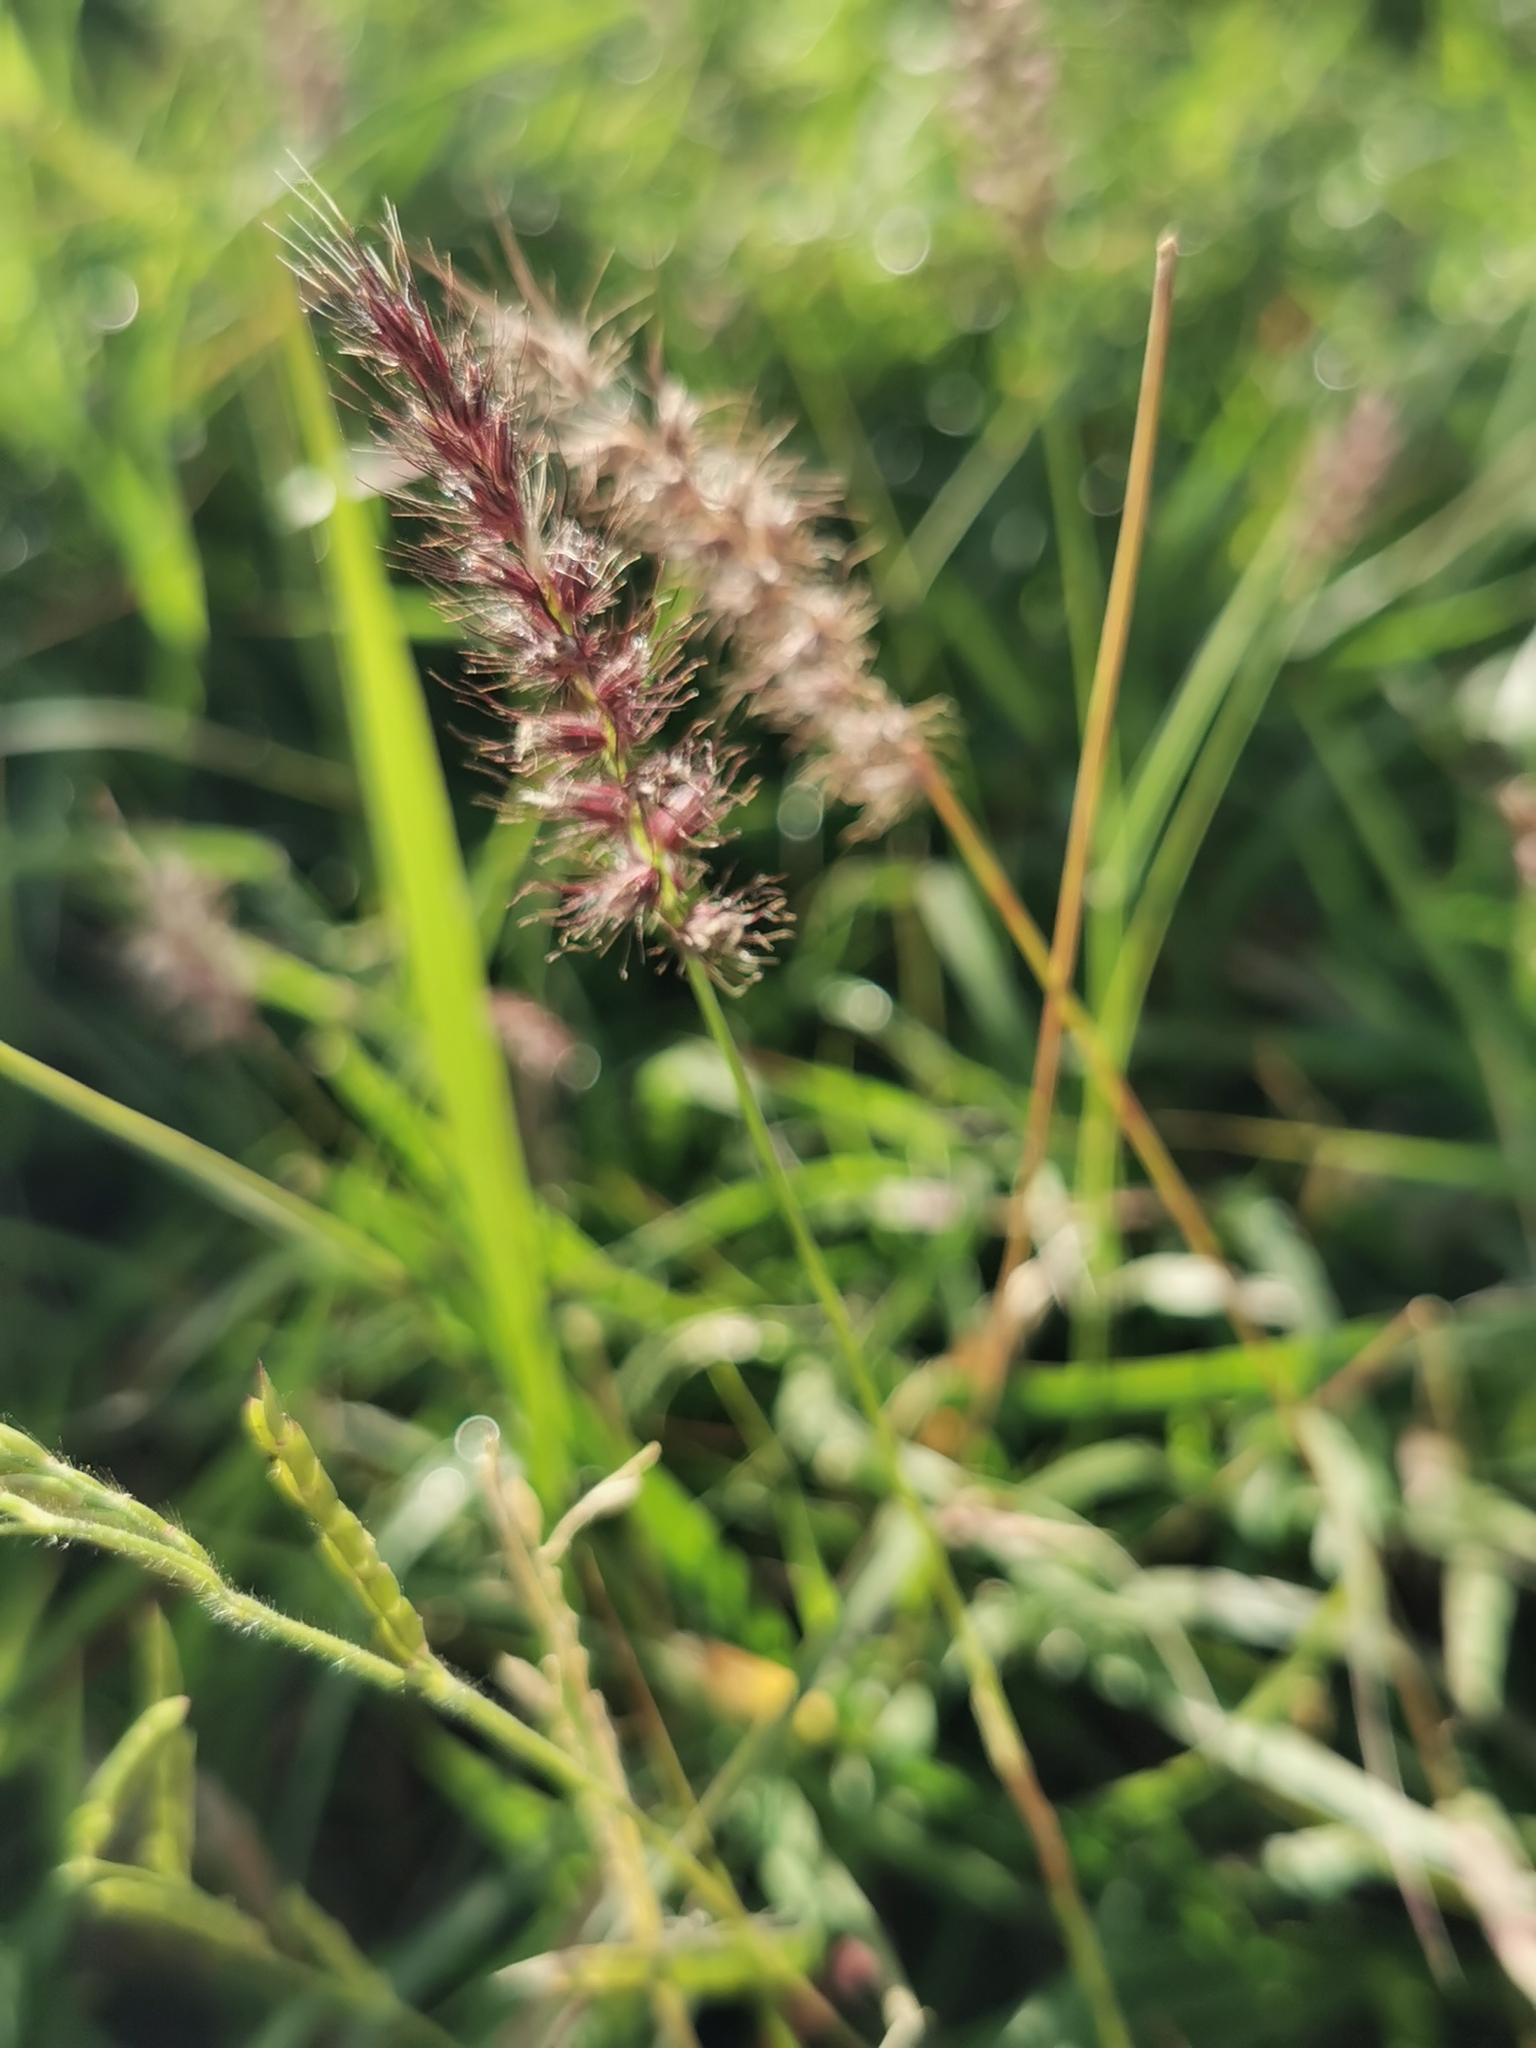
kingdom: Plantae
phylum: Tracheophyta
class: Liliopsida
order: Poales
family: Poaceae
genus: Cenchrus
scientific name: Cenchrus ciliaris
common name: Buffelgrass
